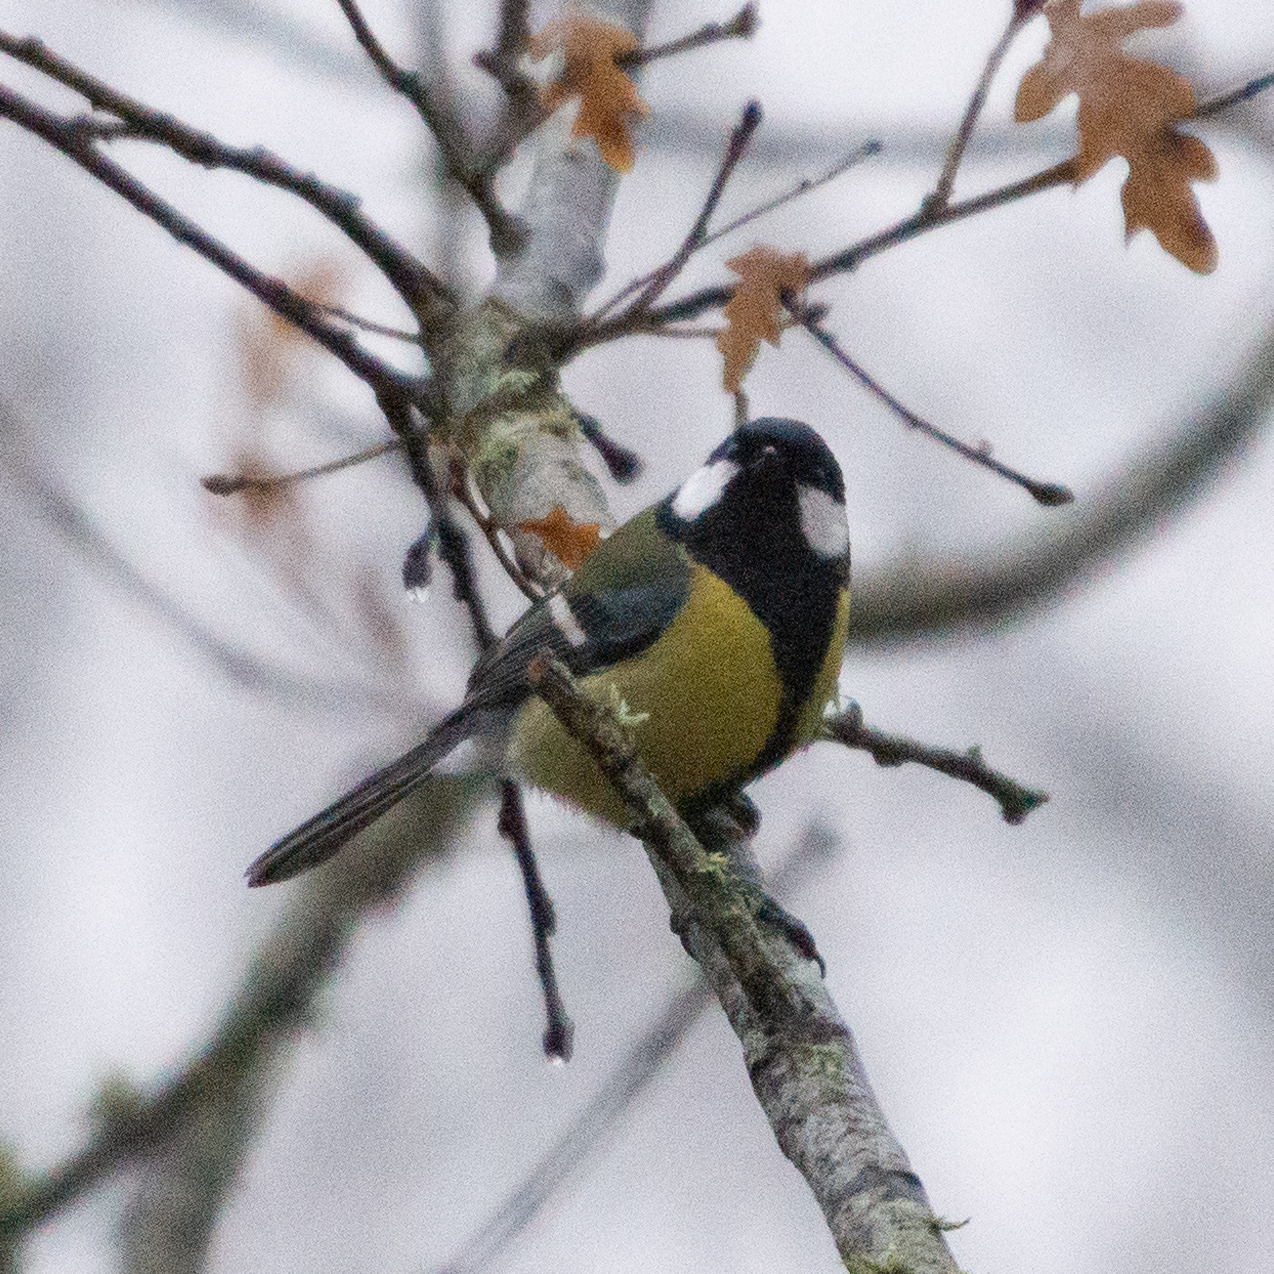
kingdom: Animalia
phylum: Chordata
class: Aves
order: Passeriformes
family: Paridae
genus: Parus
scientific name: Parus major
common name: Great tit
